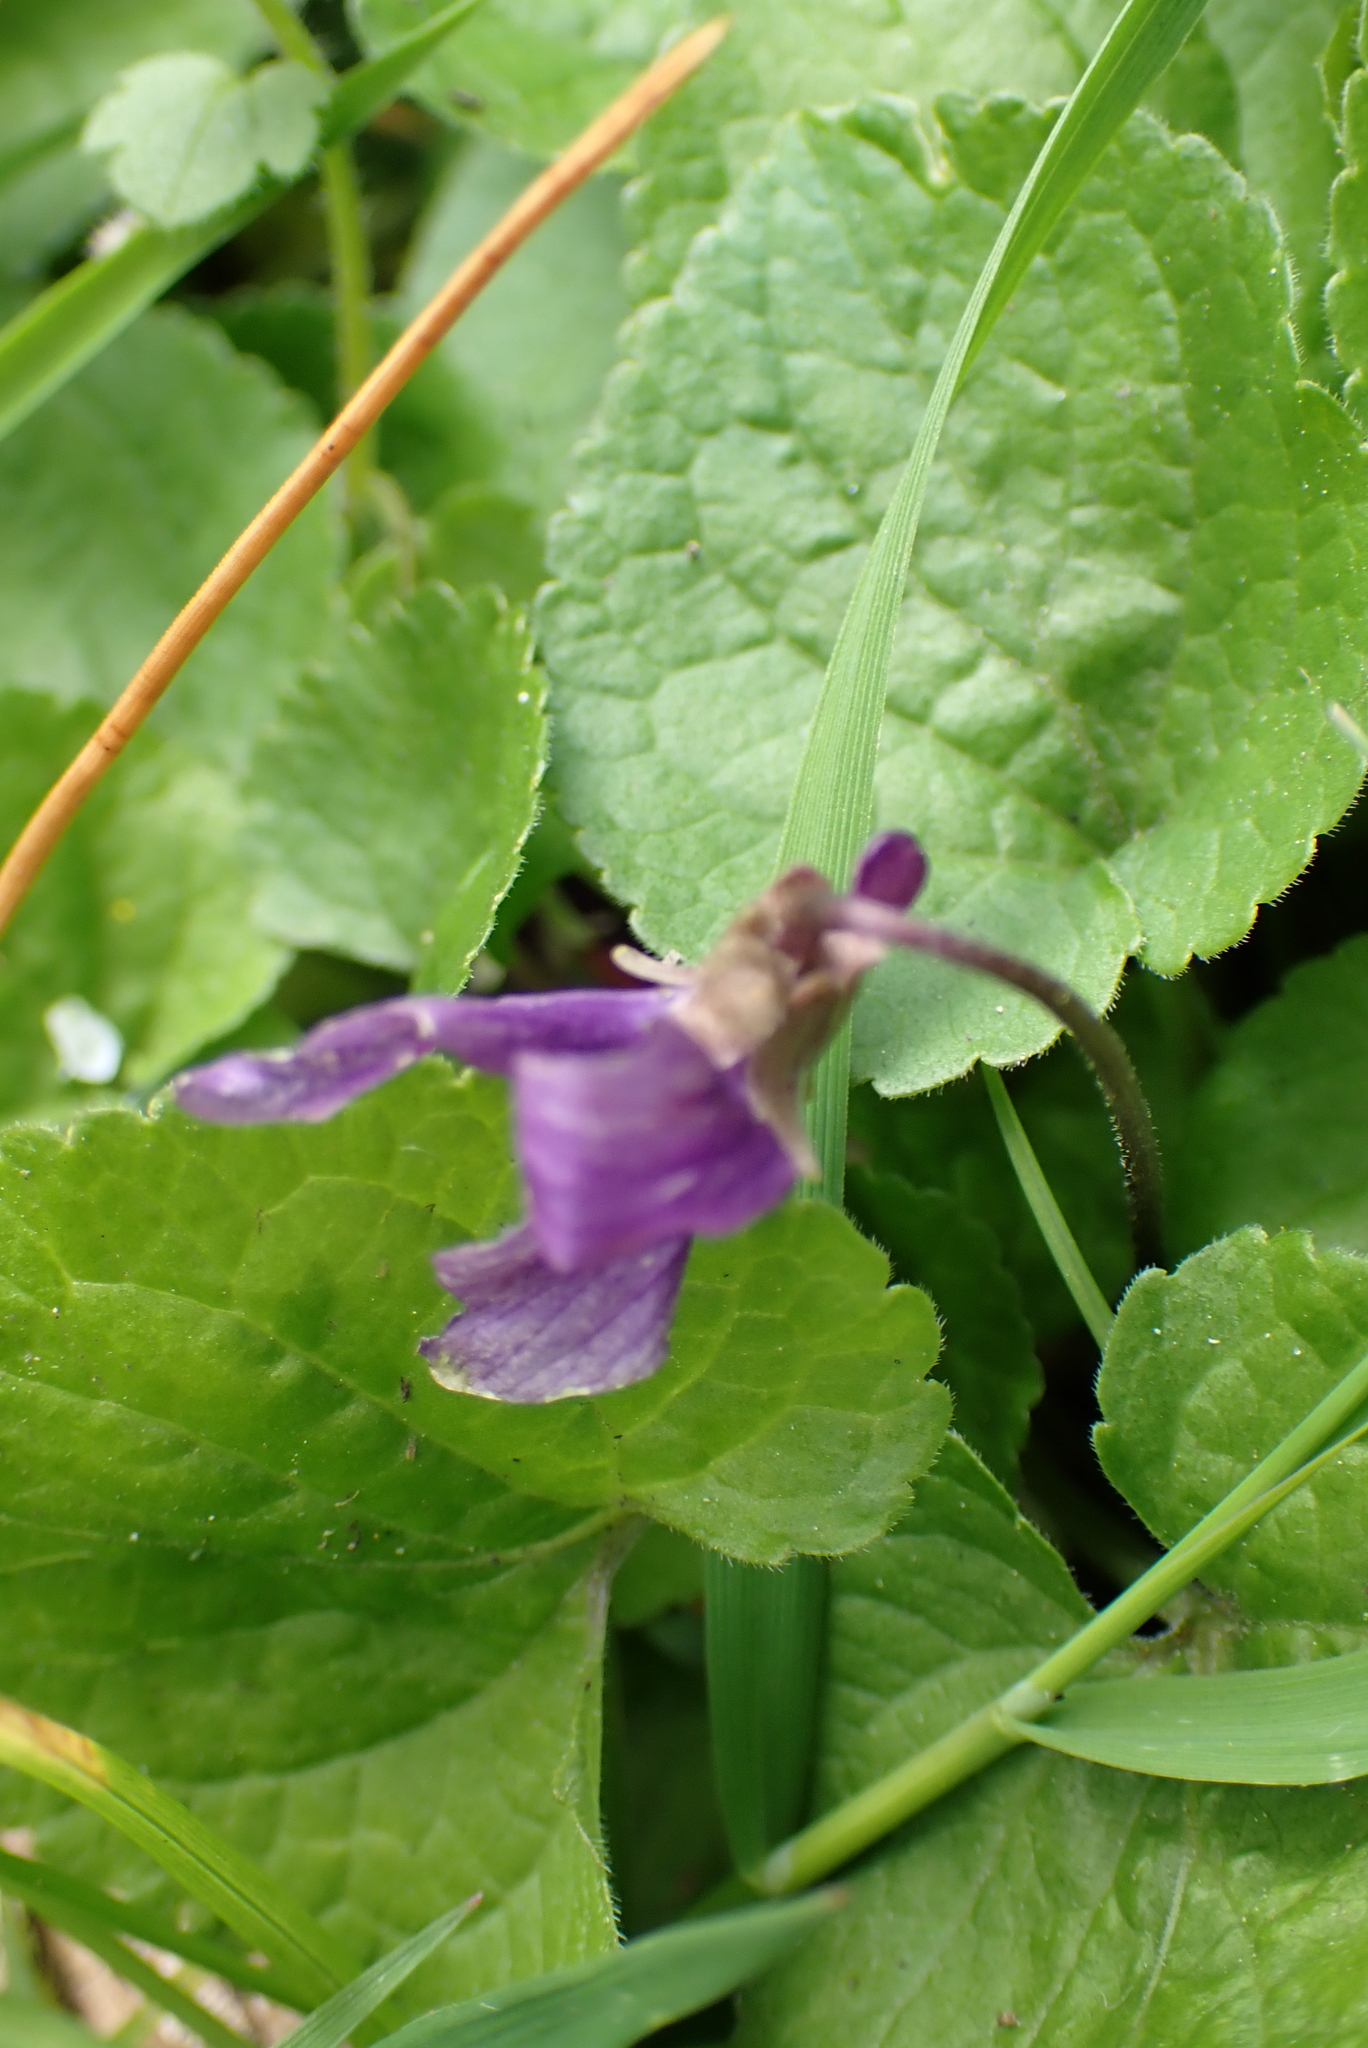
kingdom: Plantae
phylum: Tracheophyta
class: Magnoliopsida
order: Malpighiales
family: Violaceae
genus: Viola
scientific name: Viola odorata
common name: Sweet violet
